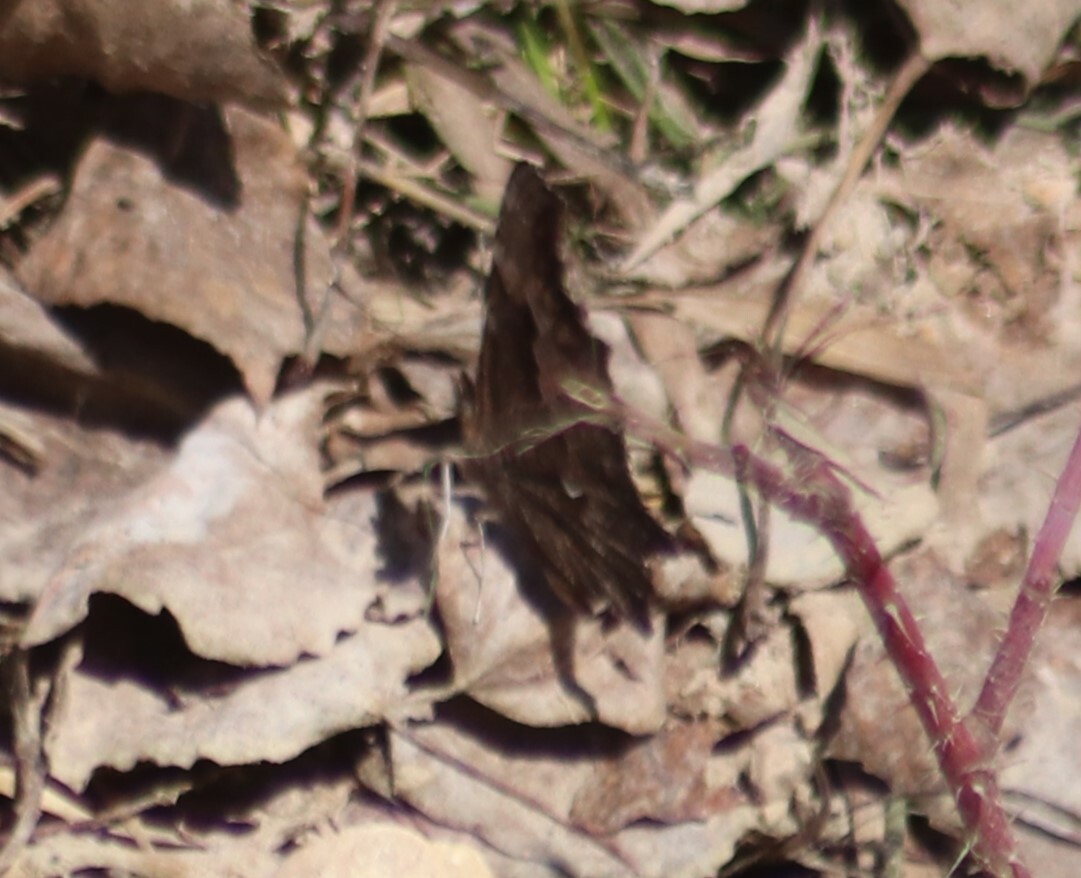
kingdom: Animalia
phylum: Arthropoda
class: Insecta
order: Lepidoptera
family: Nymphalidae
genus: Polygonia
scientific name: Polygonia progne
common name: Gray comma
